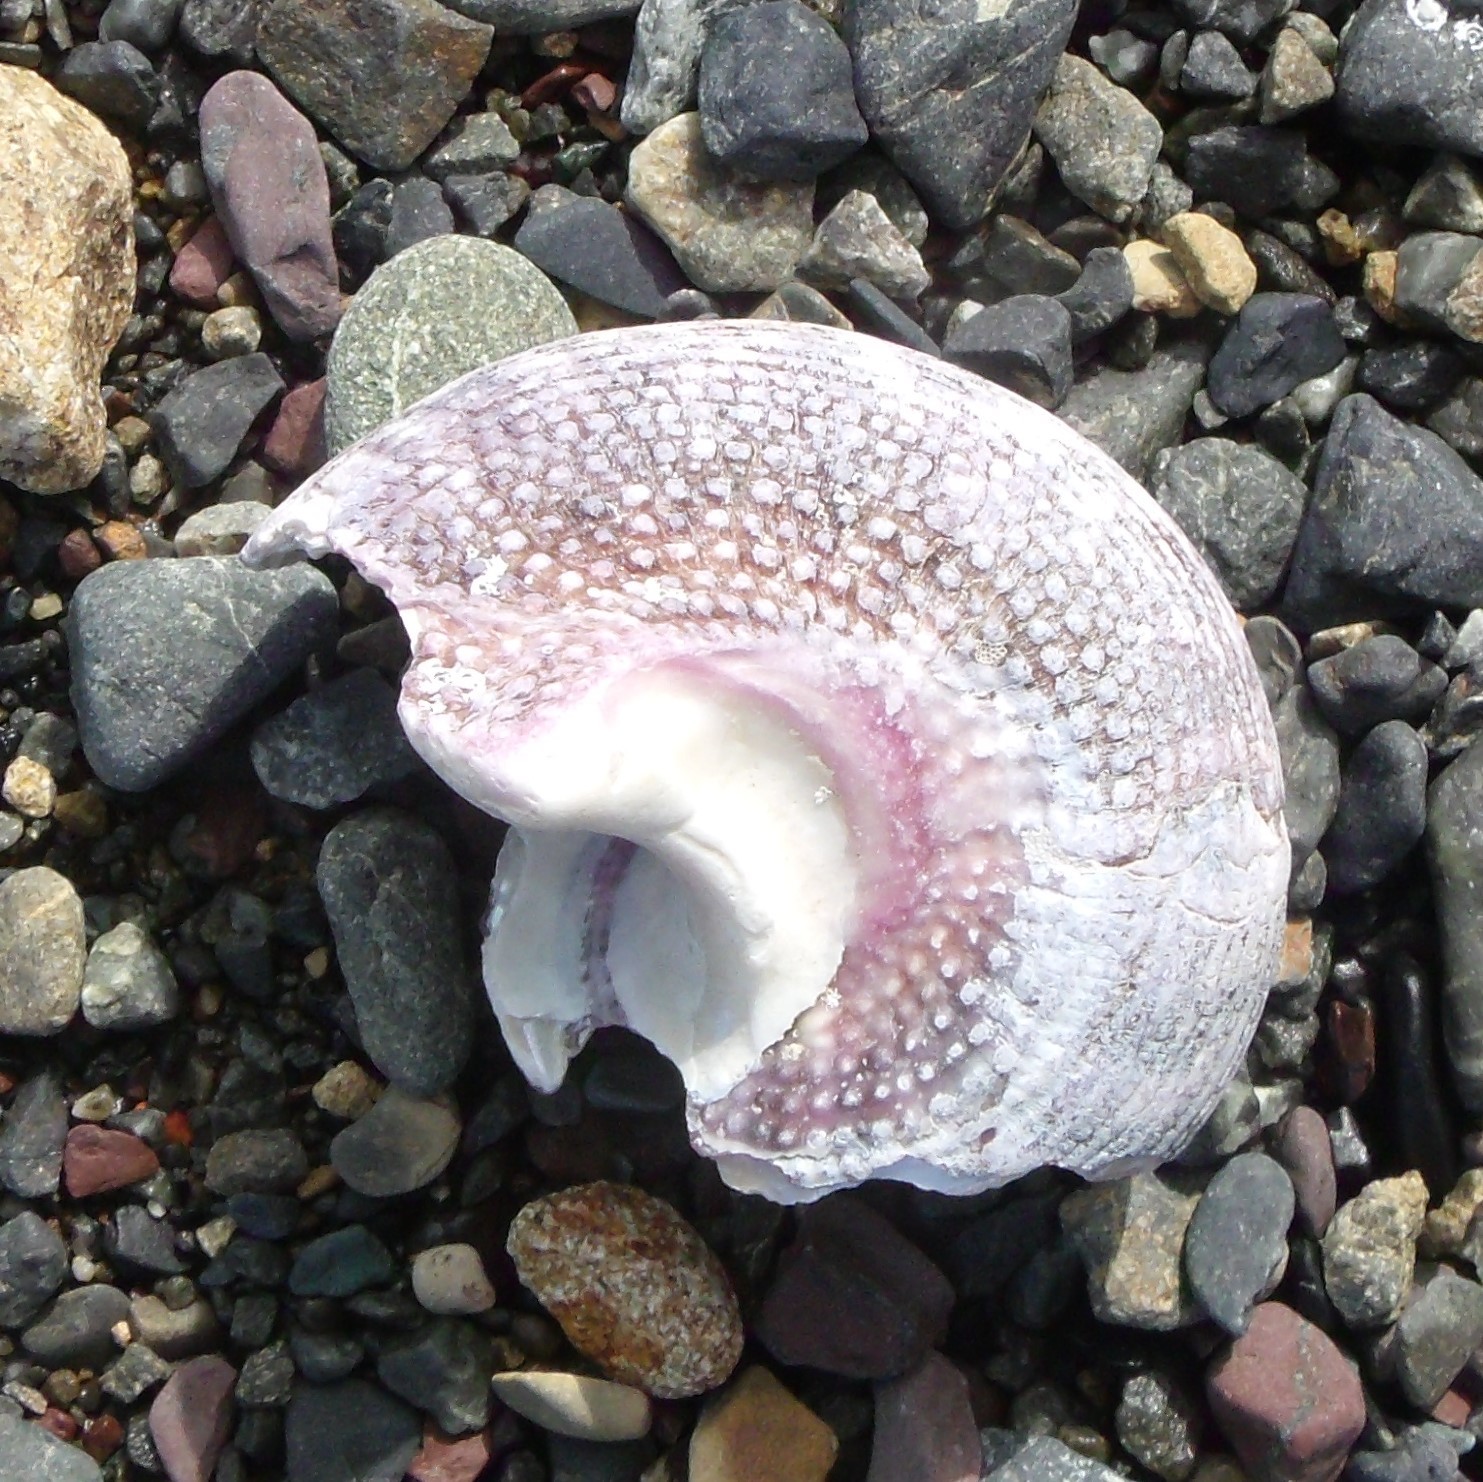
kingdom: Animalia
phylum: Mollusca
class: Gastropoda
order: Trochida
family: Turbinidae
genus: Modelia
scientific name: Modelia granosa
